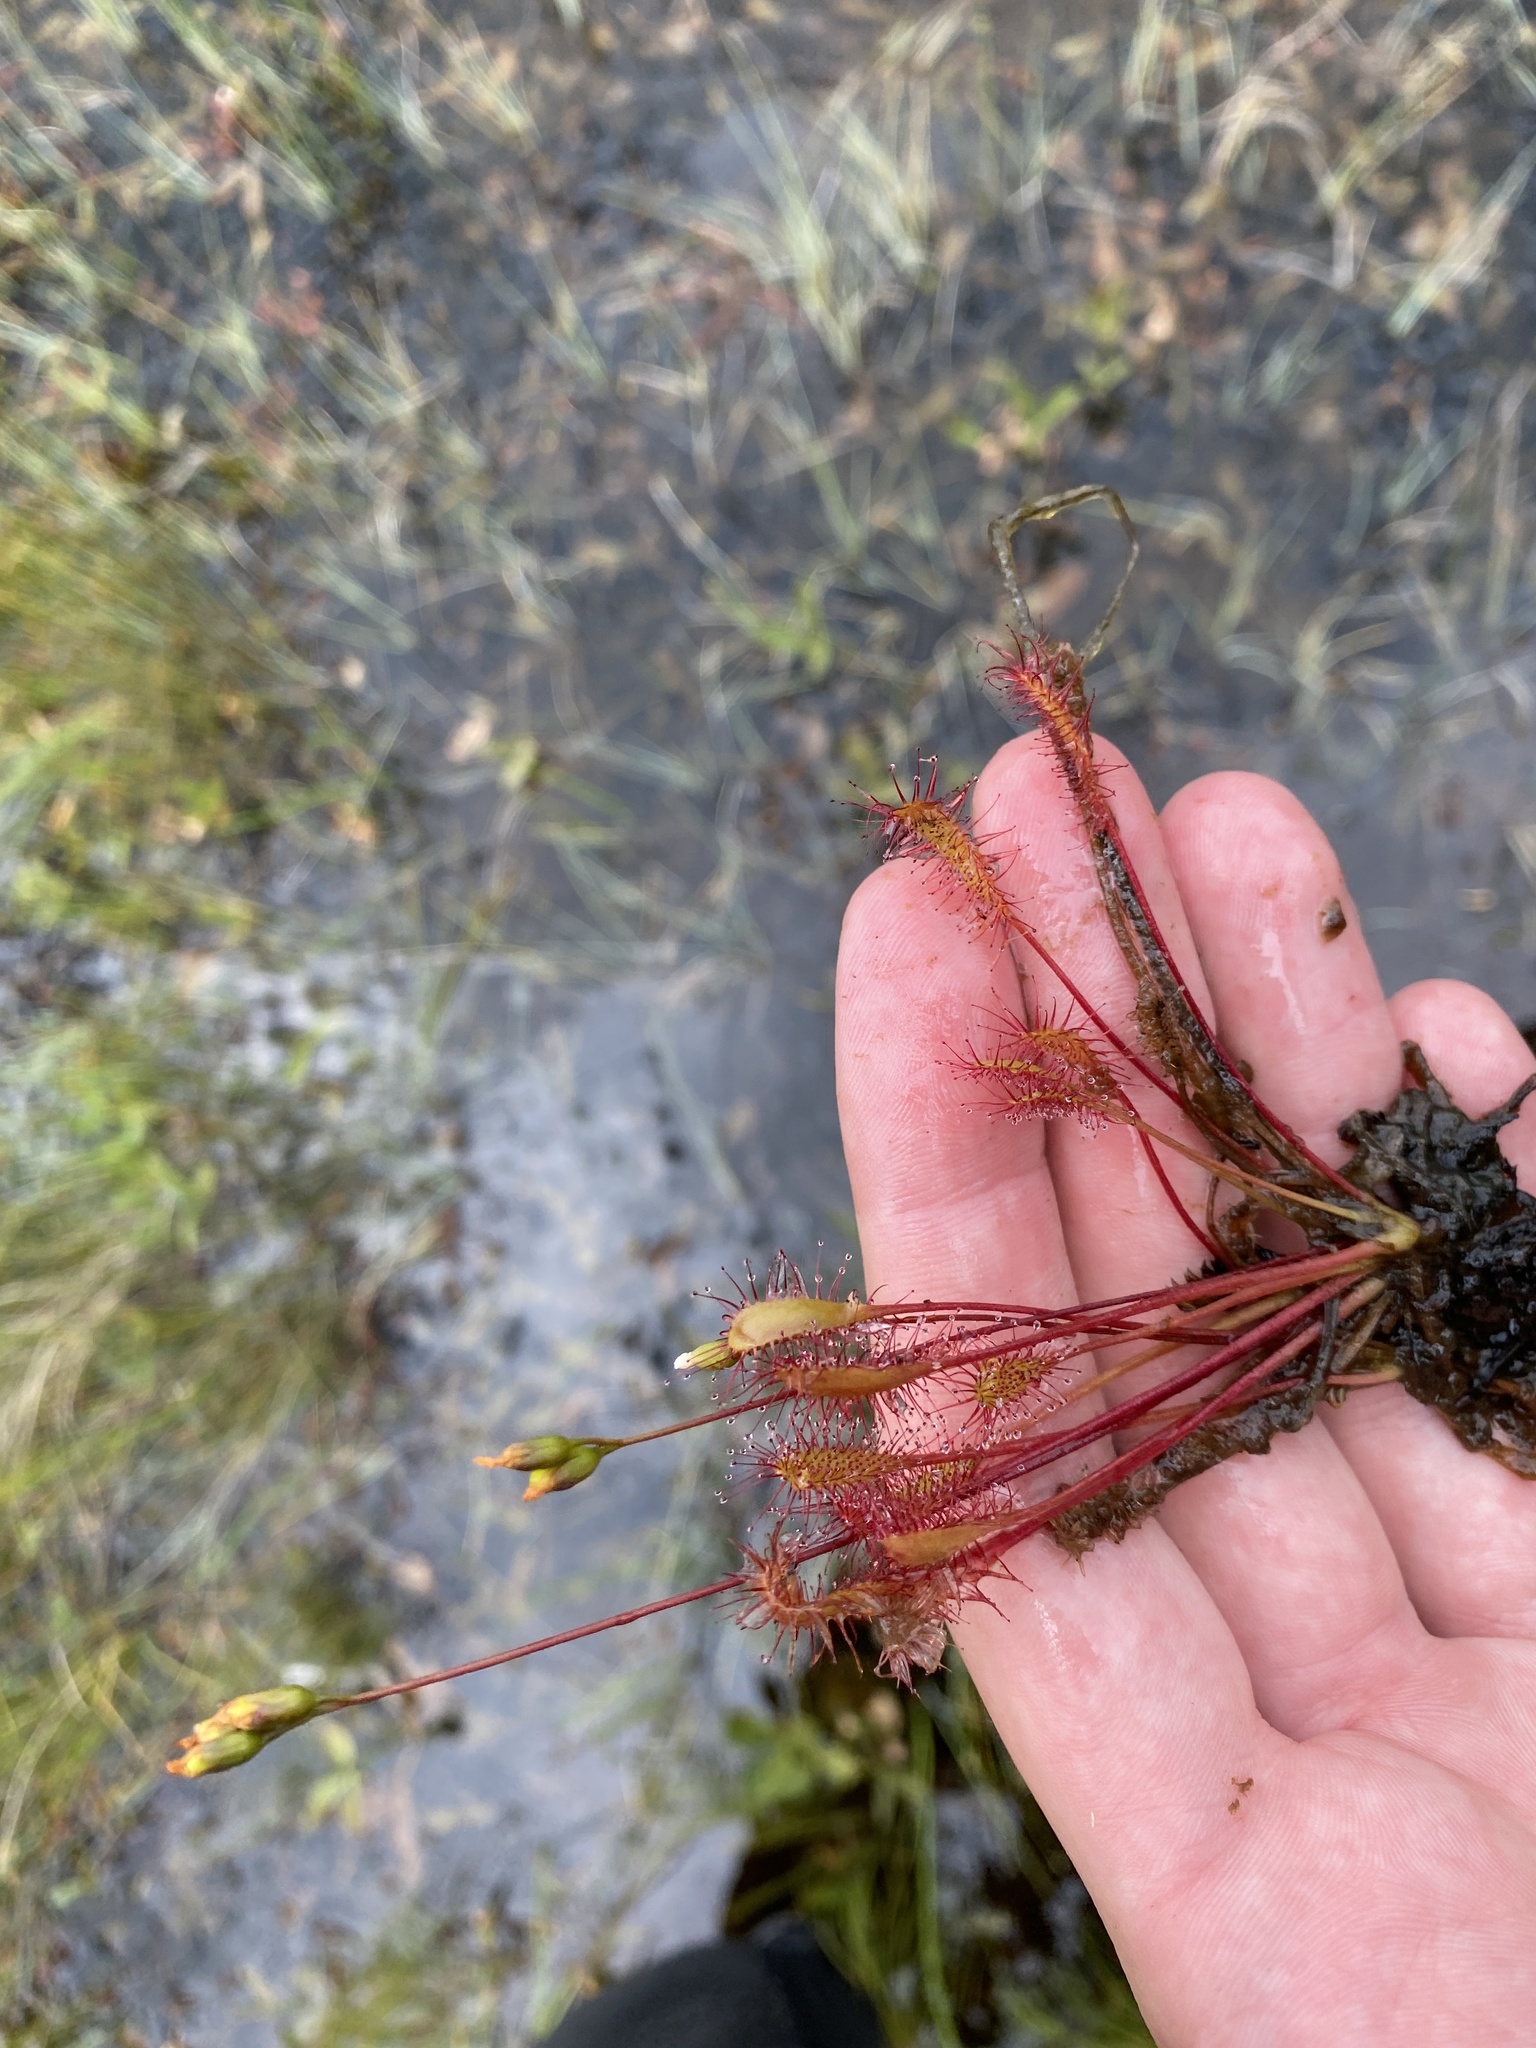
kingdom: Plantae
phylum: Tracheophyta
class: Magnoliopsida
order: Caryophyllales
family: Droseraceae
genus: Drosera
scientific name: Drosera anglica
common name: Great sundew
